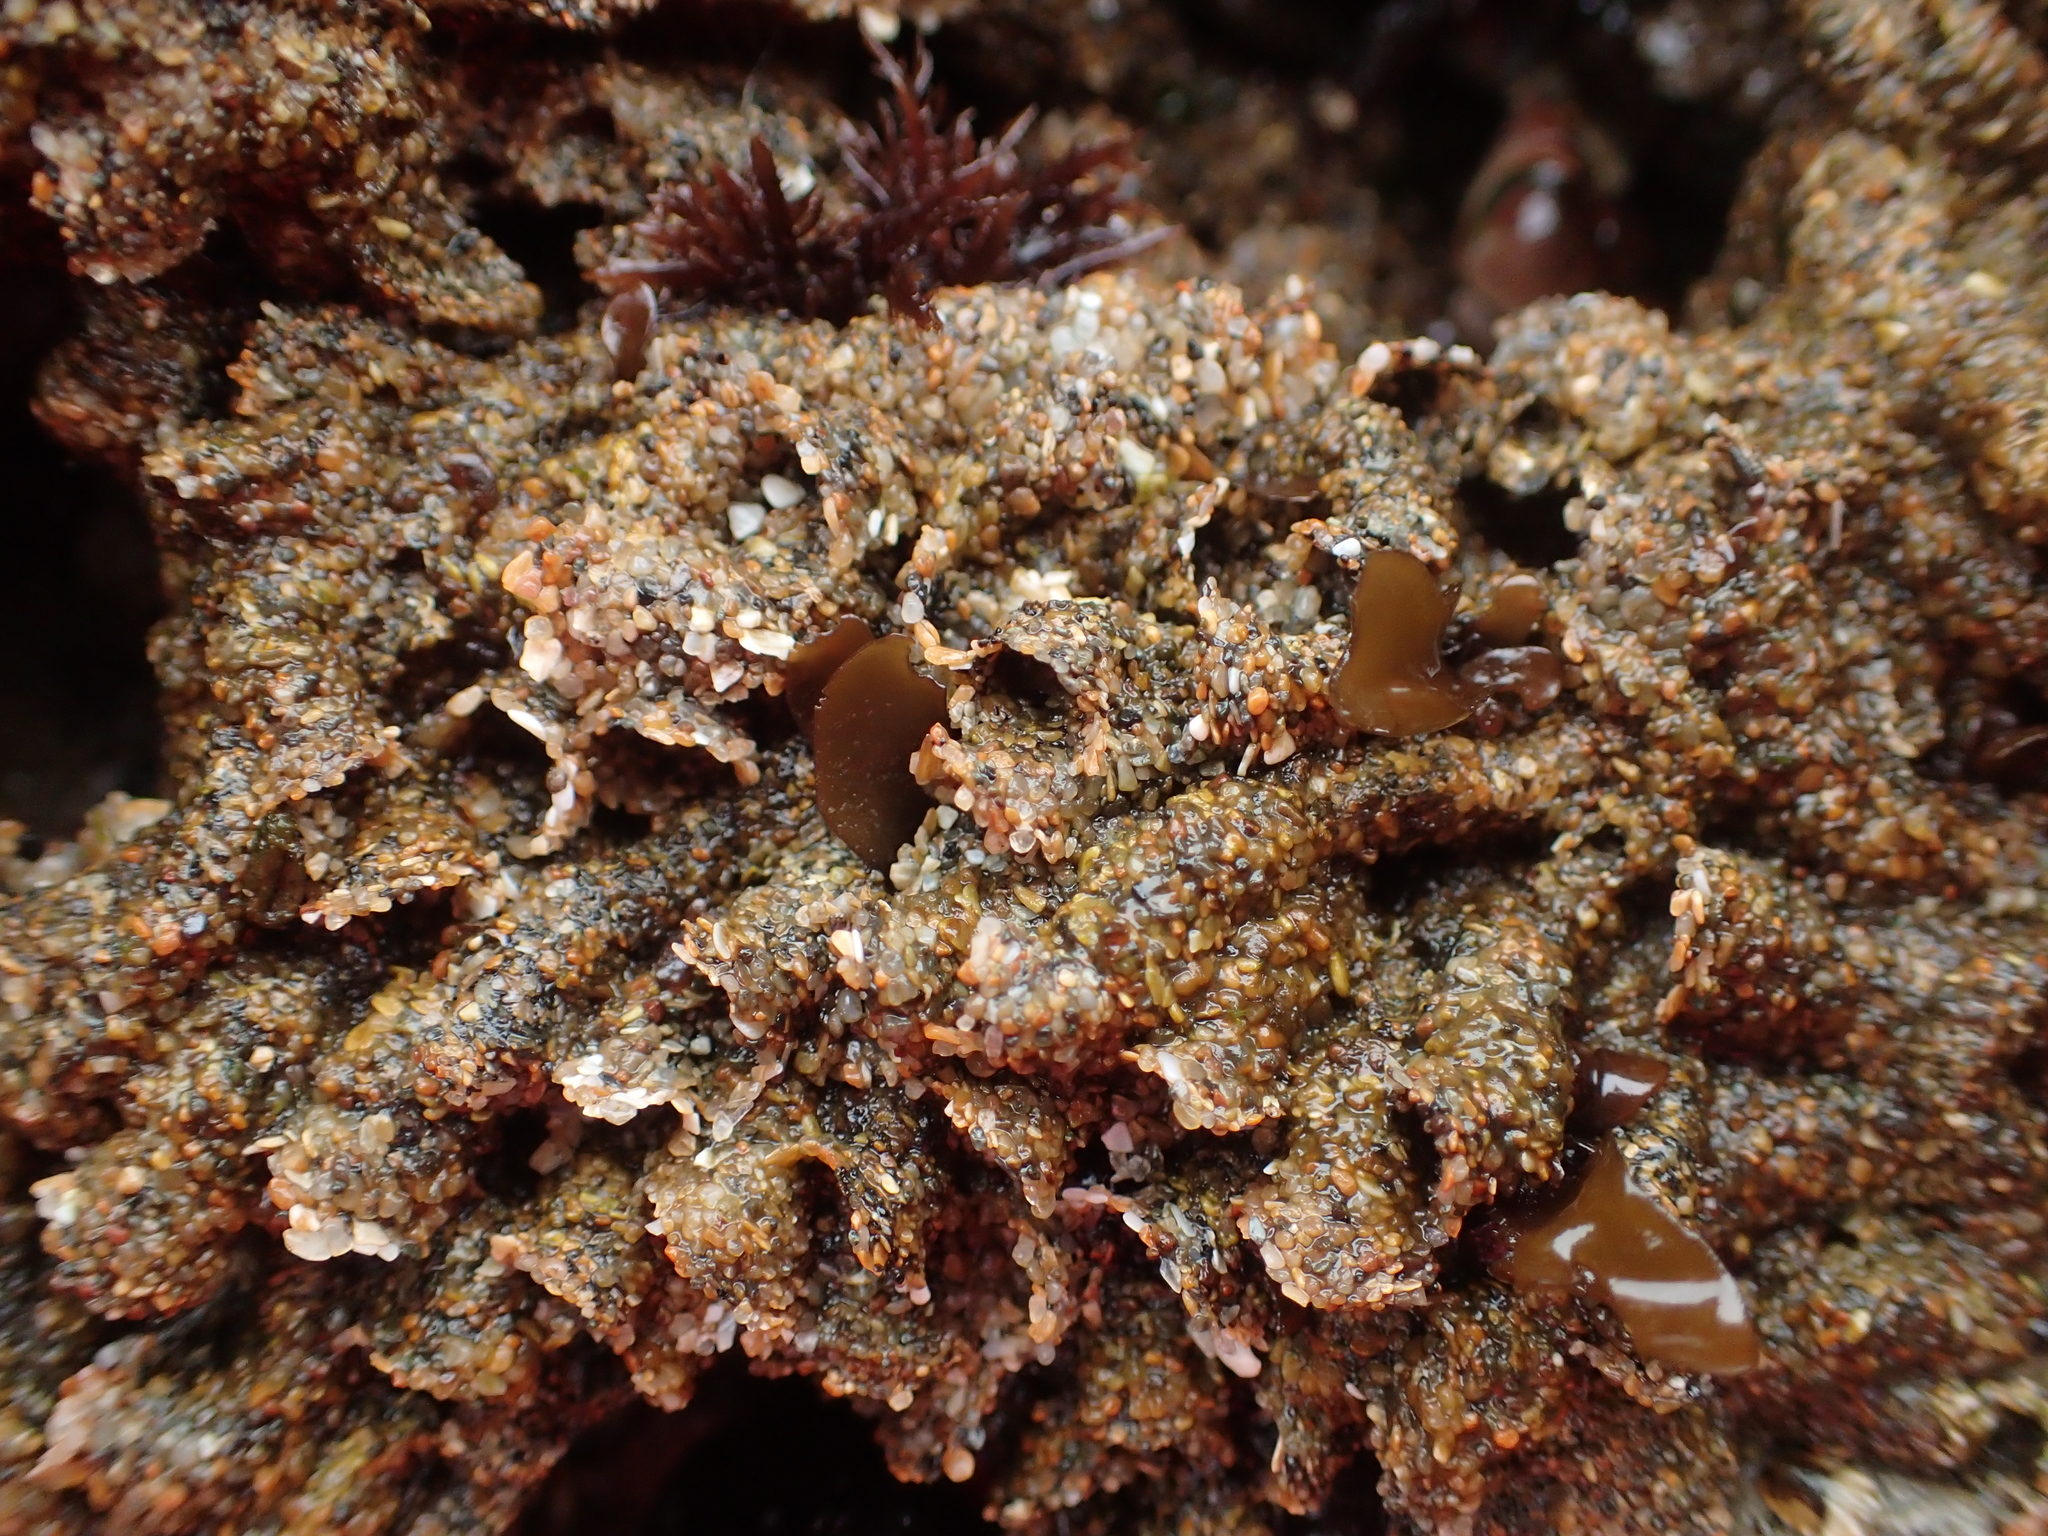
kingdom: Animalia
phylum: Annelida
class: Polychaeta
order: Sabellida
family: Sabellariidae
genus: Phragmatopoma
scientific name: Phragmatopoma californica
